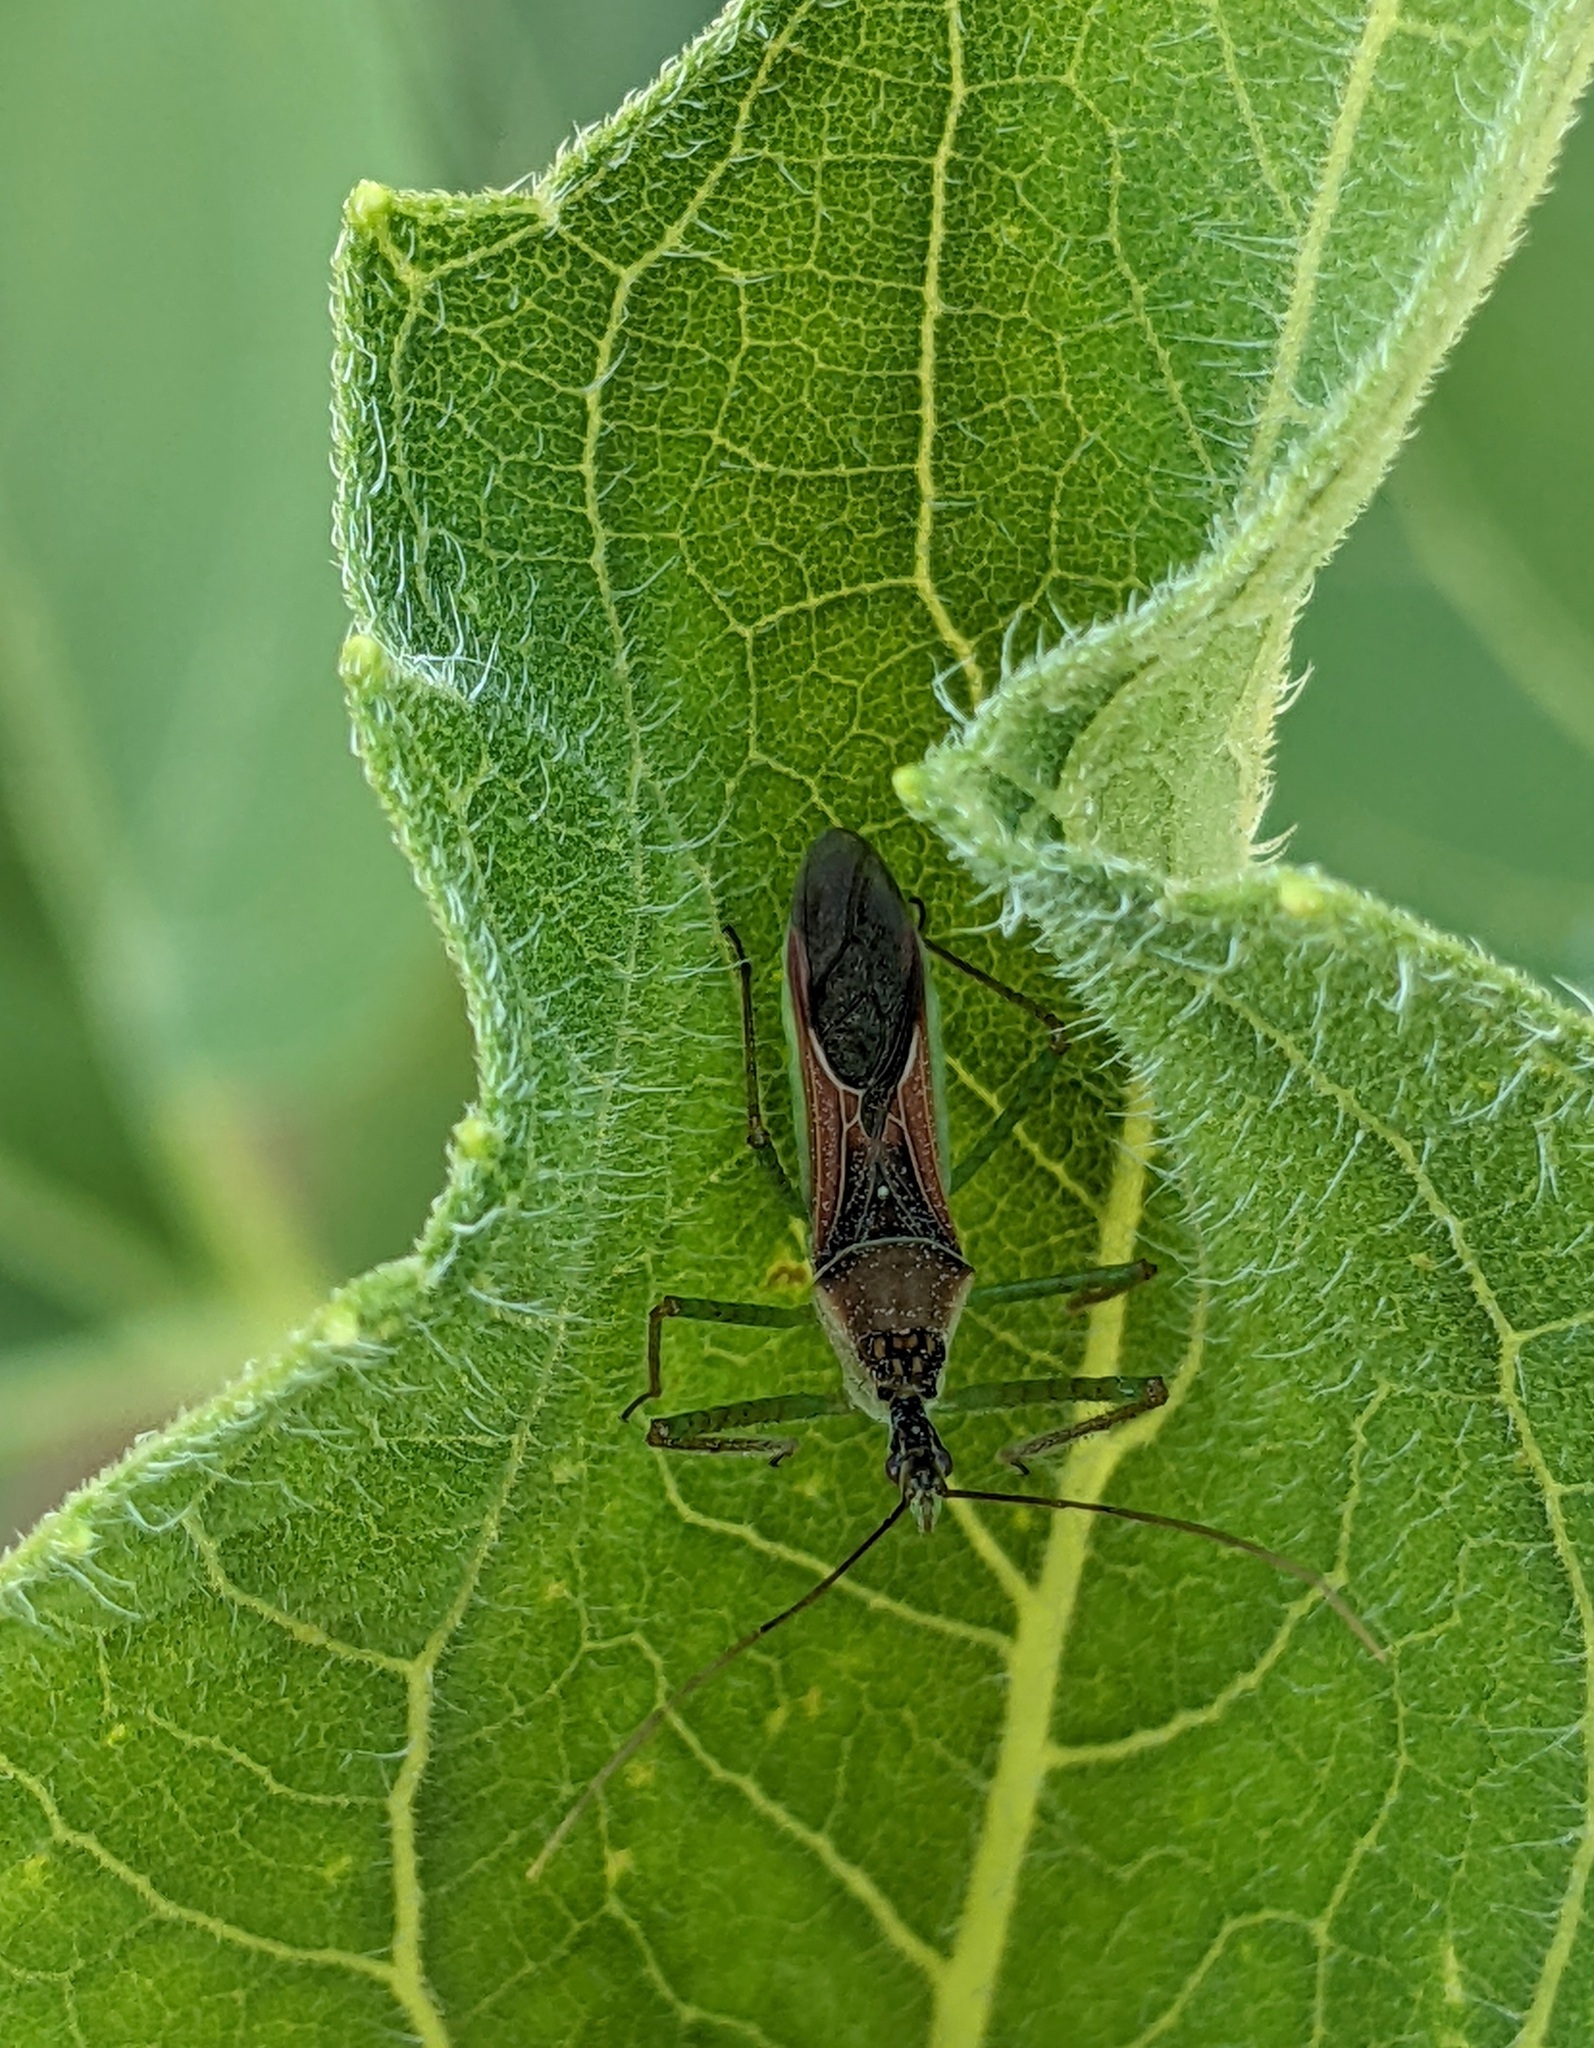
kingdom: Animalia
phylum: Arthropoda
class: Insecta
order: Hemiptera
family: Reduviidae
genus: Zelus
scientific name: Zelus renardii
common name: Assassin bug
